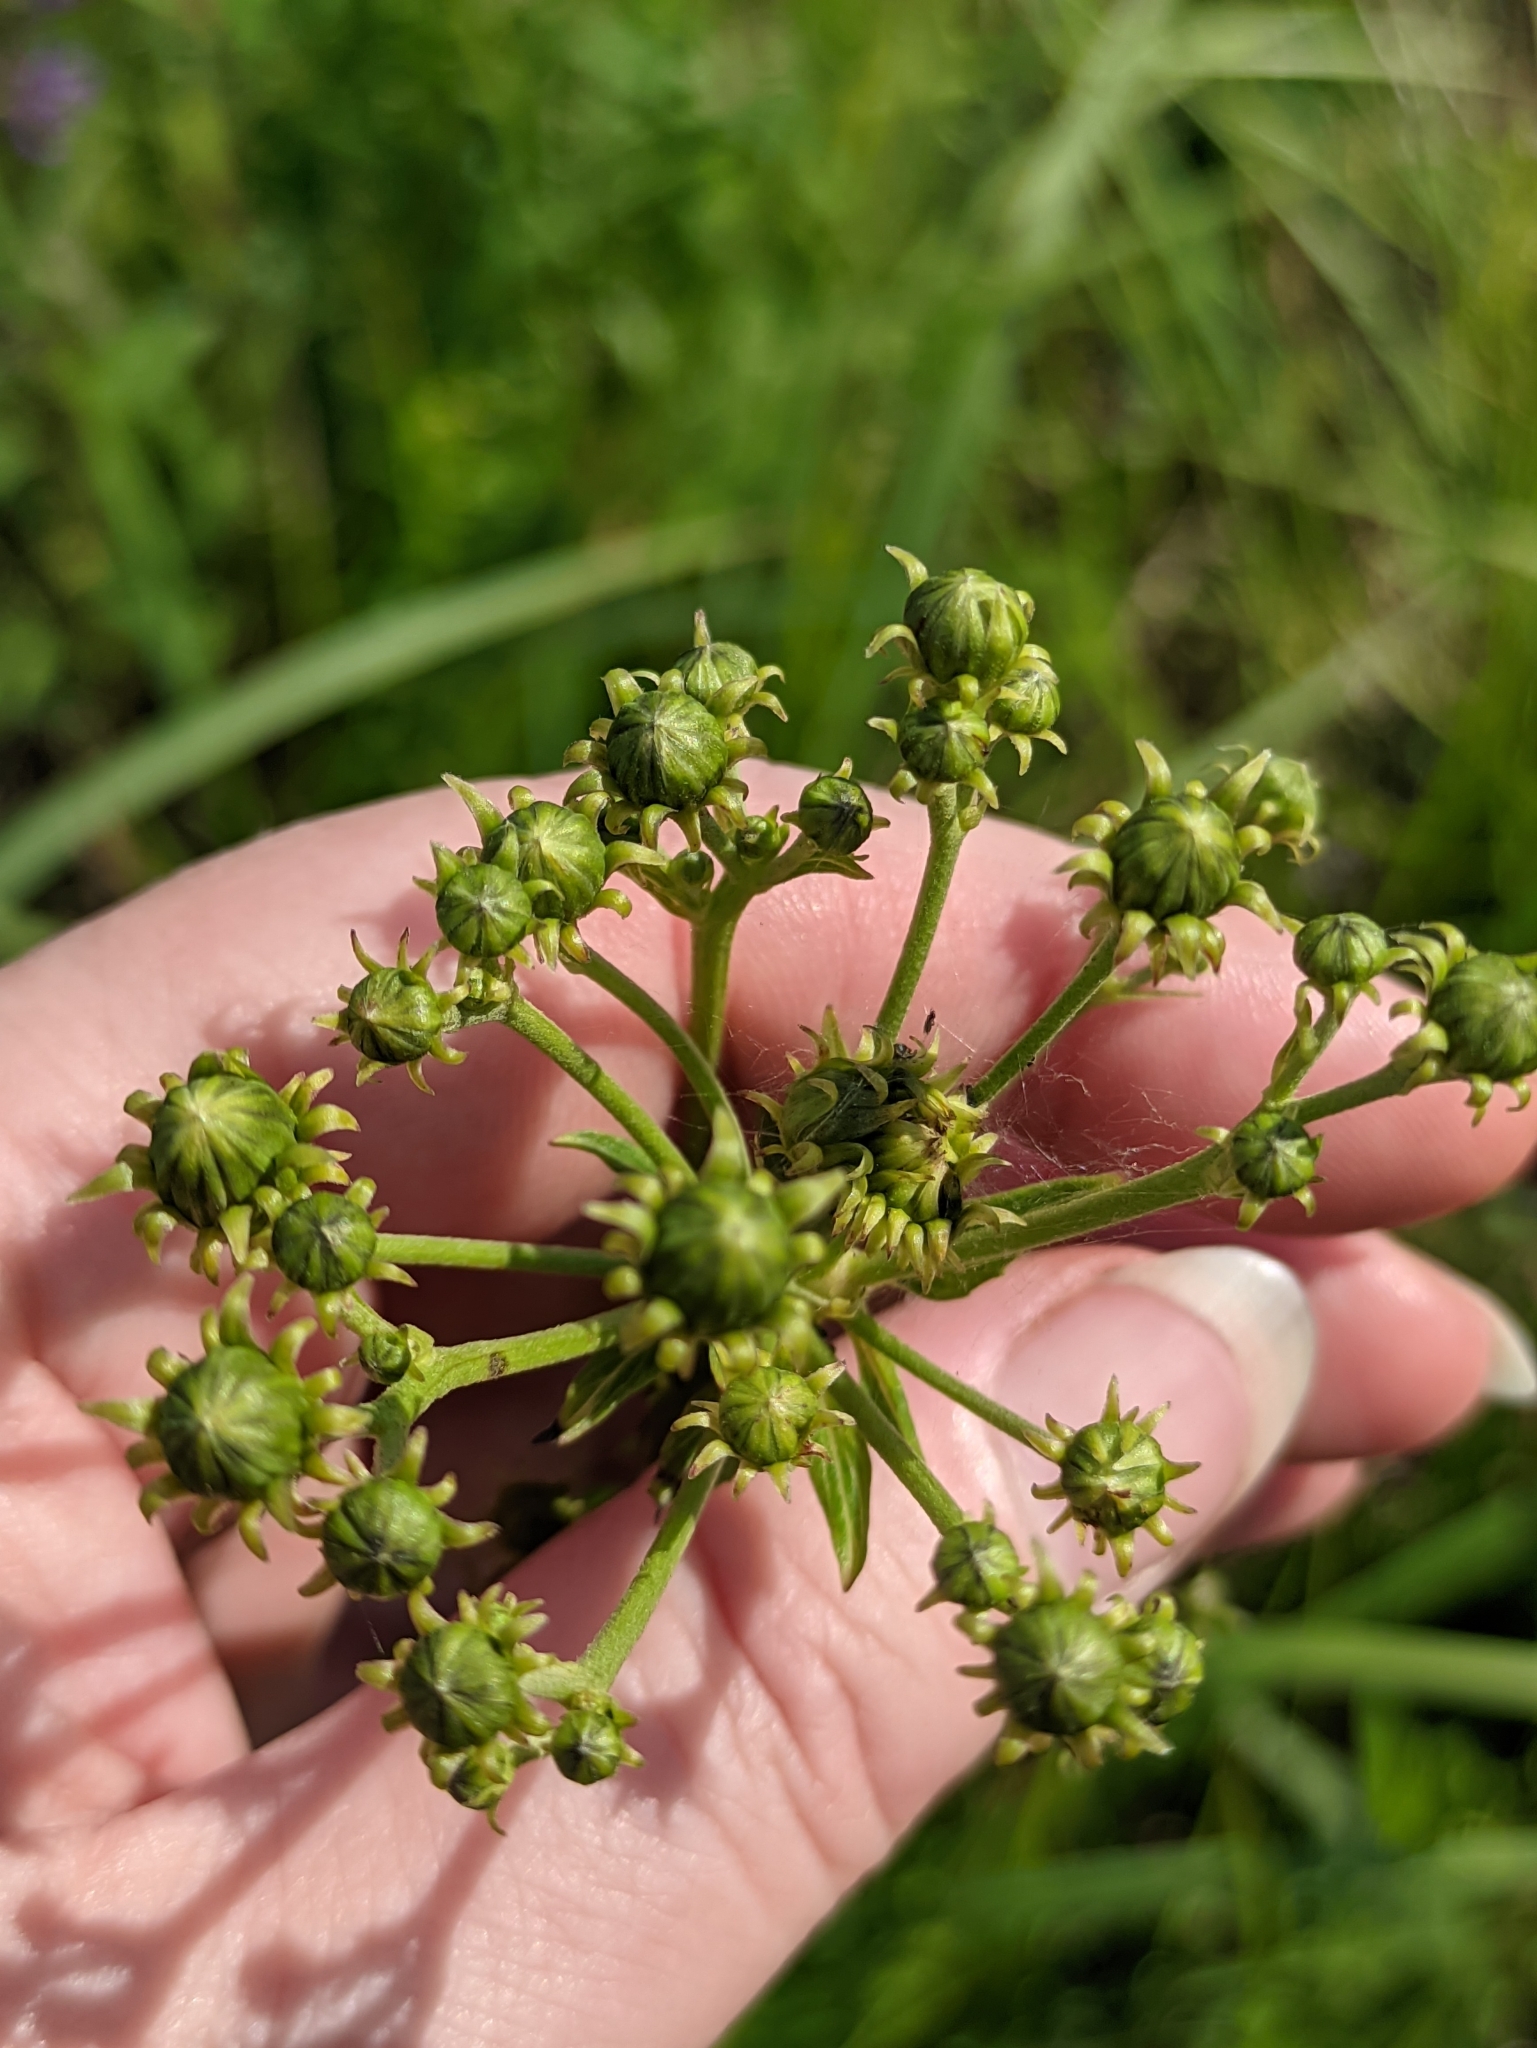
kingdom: Plantae
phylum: Tracheophyta
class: Magnoliopsida
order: Asterales
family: Asteraceae
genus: Hieracium
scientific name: Hieracium umbellatum
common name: Northern hawkweed
